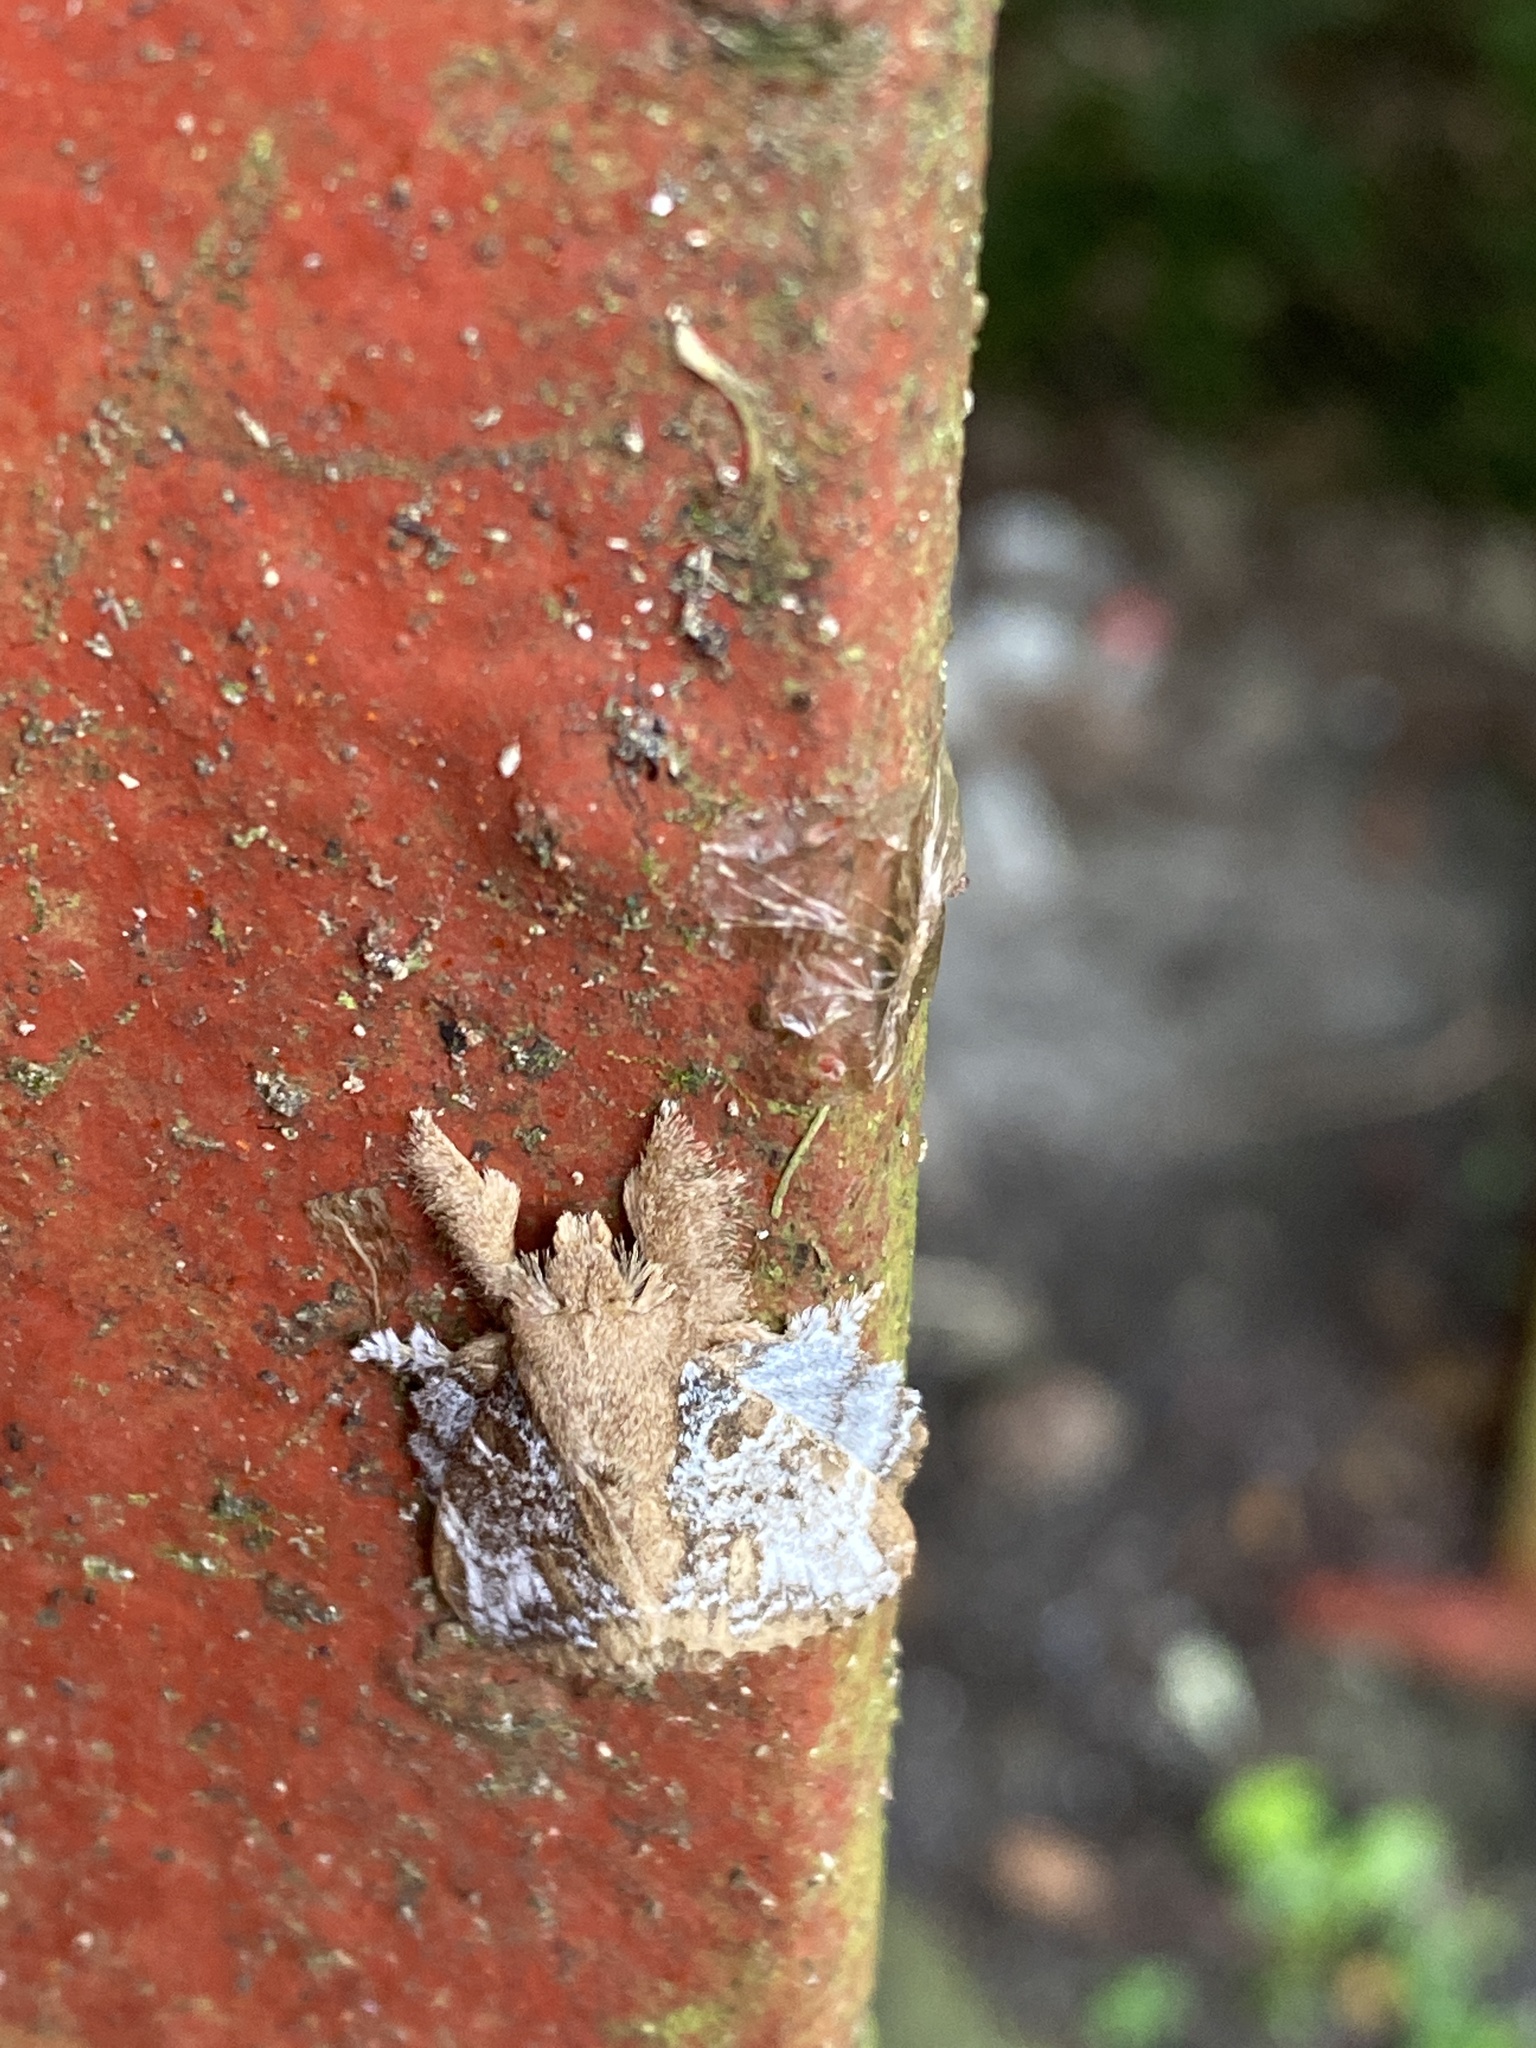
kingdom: Animalia
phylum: Arthropoda
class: Insecta
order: Lepidoptera
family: Lasiocampidae
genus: Euglyphis
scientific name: Euglyphis rundala
